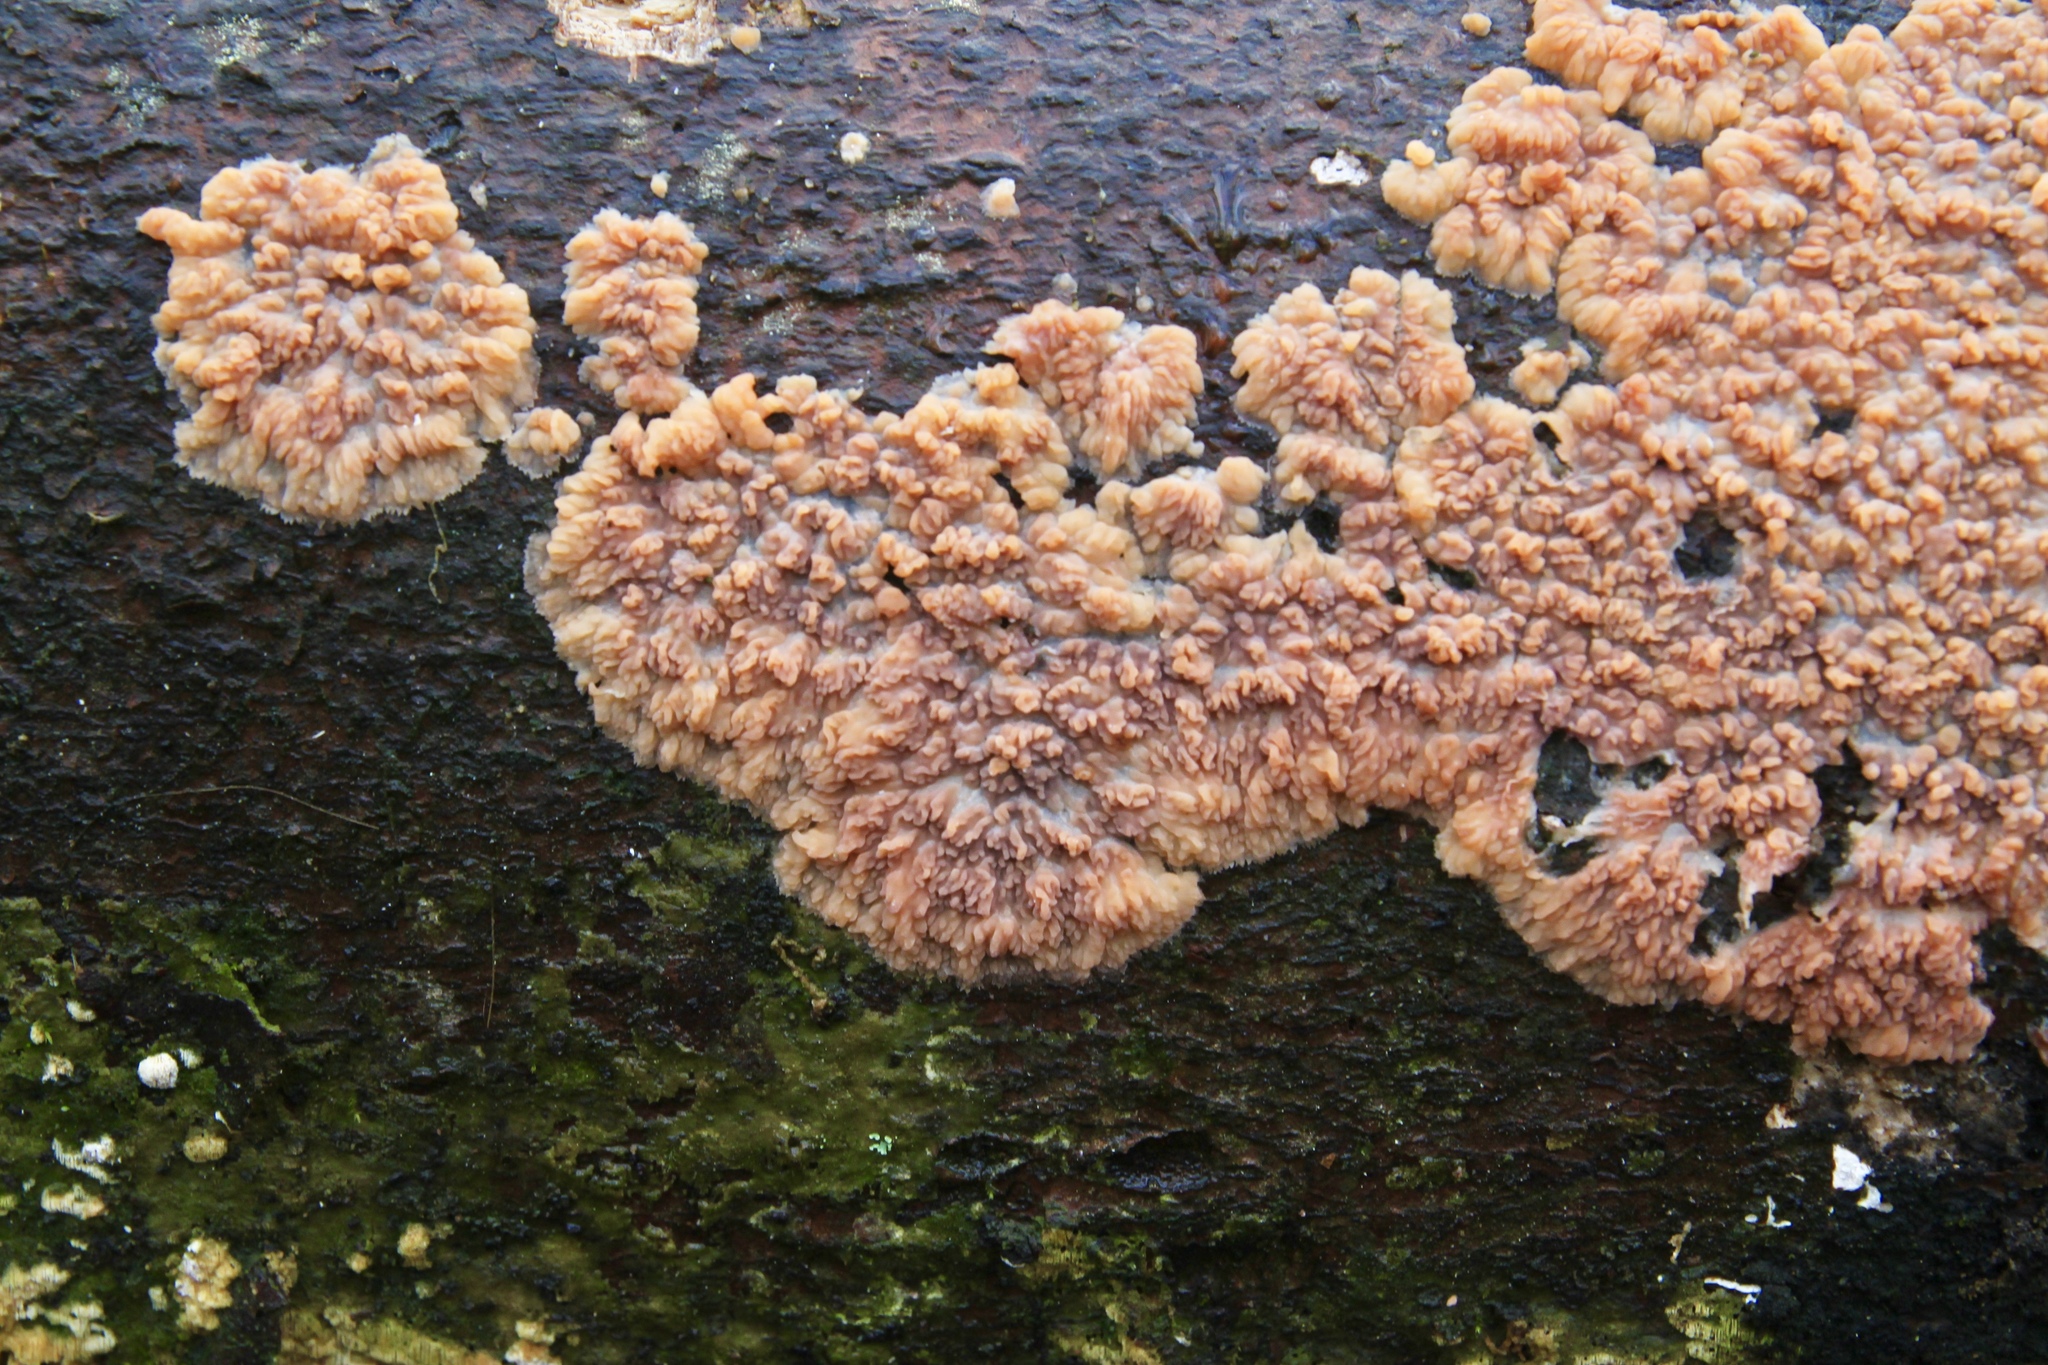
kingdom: Fungi
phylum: Basidiomycota
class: Agaricomycetes
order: Polyporales
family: Meruliaceae
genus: Phlebia
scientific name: Phlebia radiata
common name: Wrinkled crust
